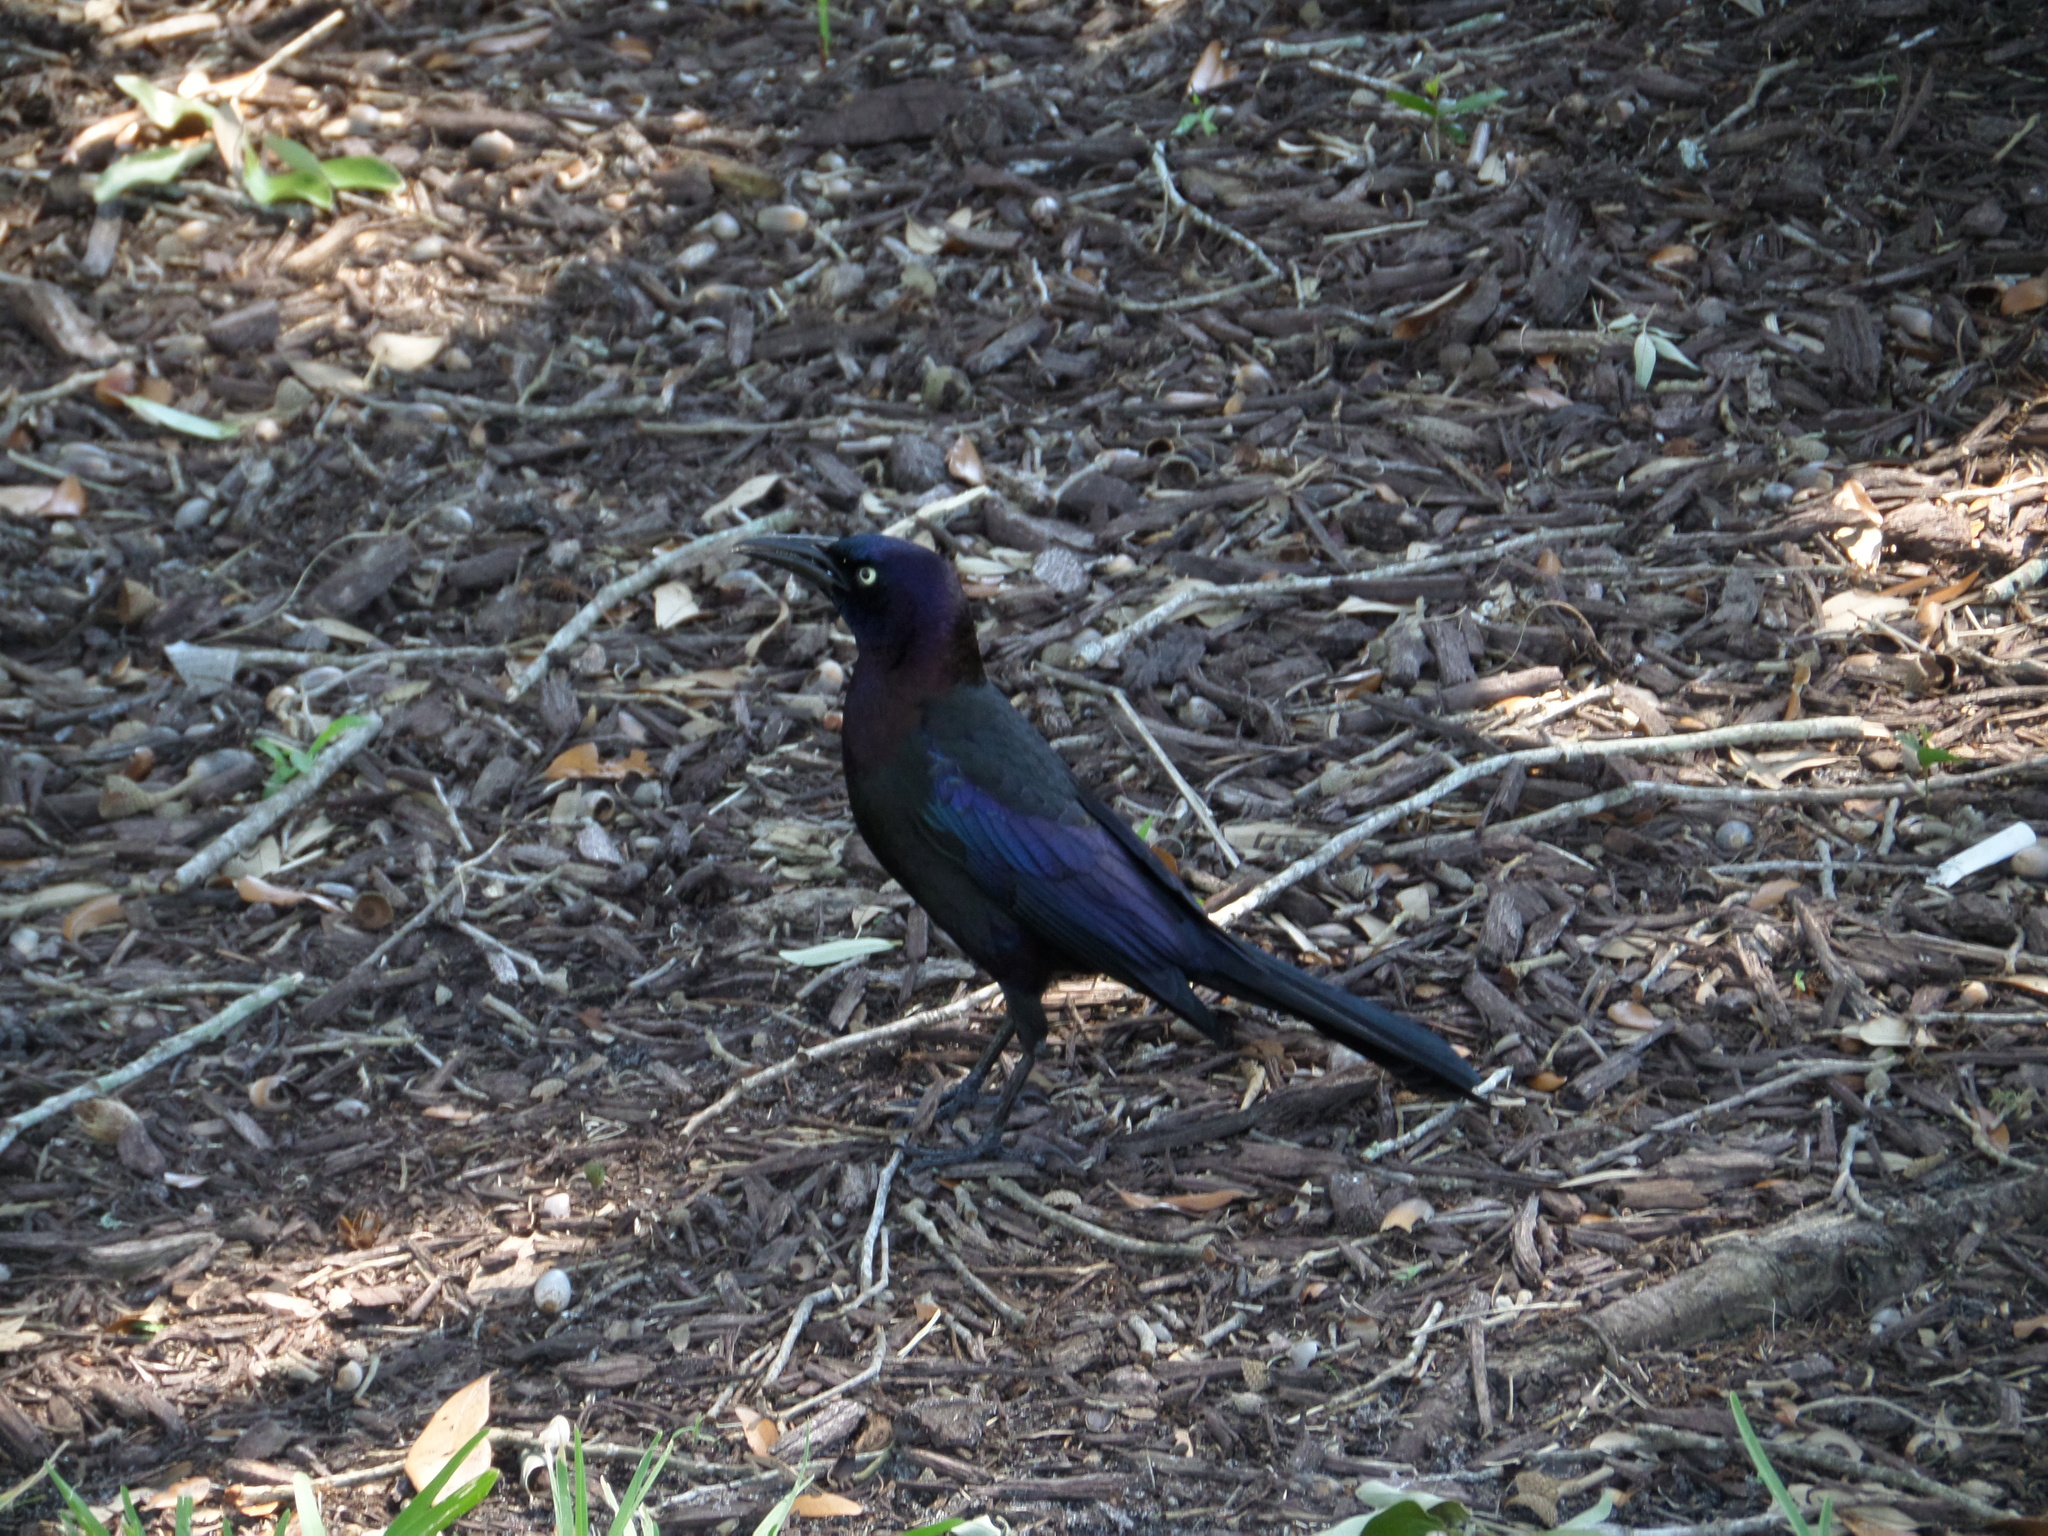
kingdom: Animalia
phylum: Chordata
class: Aves
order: Passeriformes
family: Icteridae
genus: Quiscalus
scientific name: Quiscalus quiscula
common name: Common grackle
